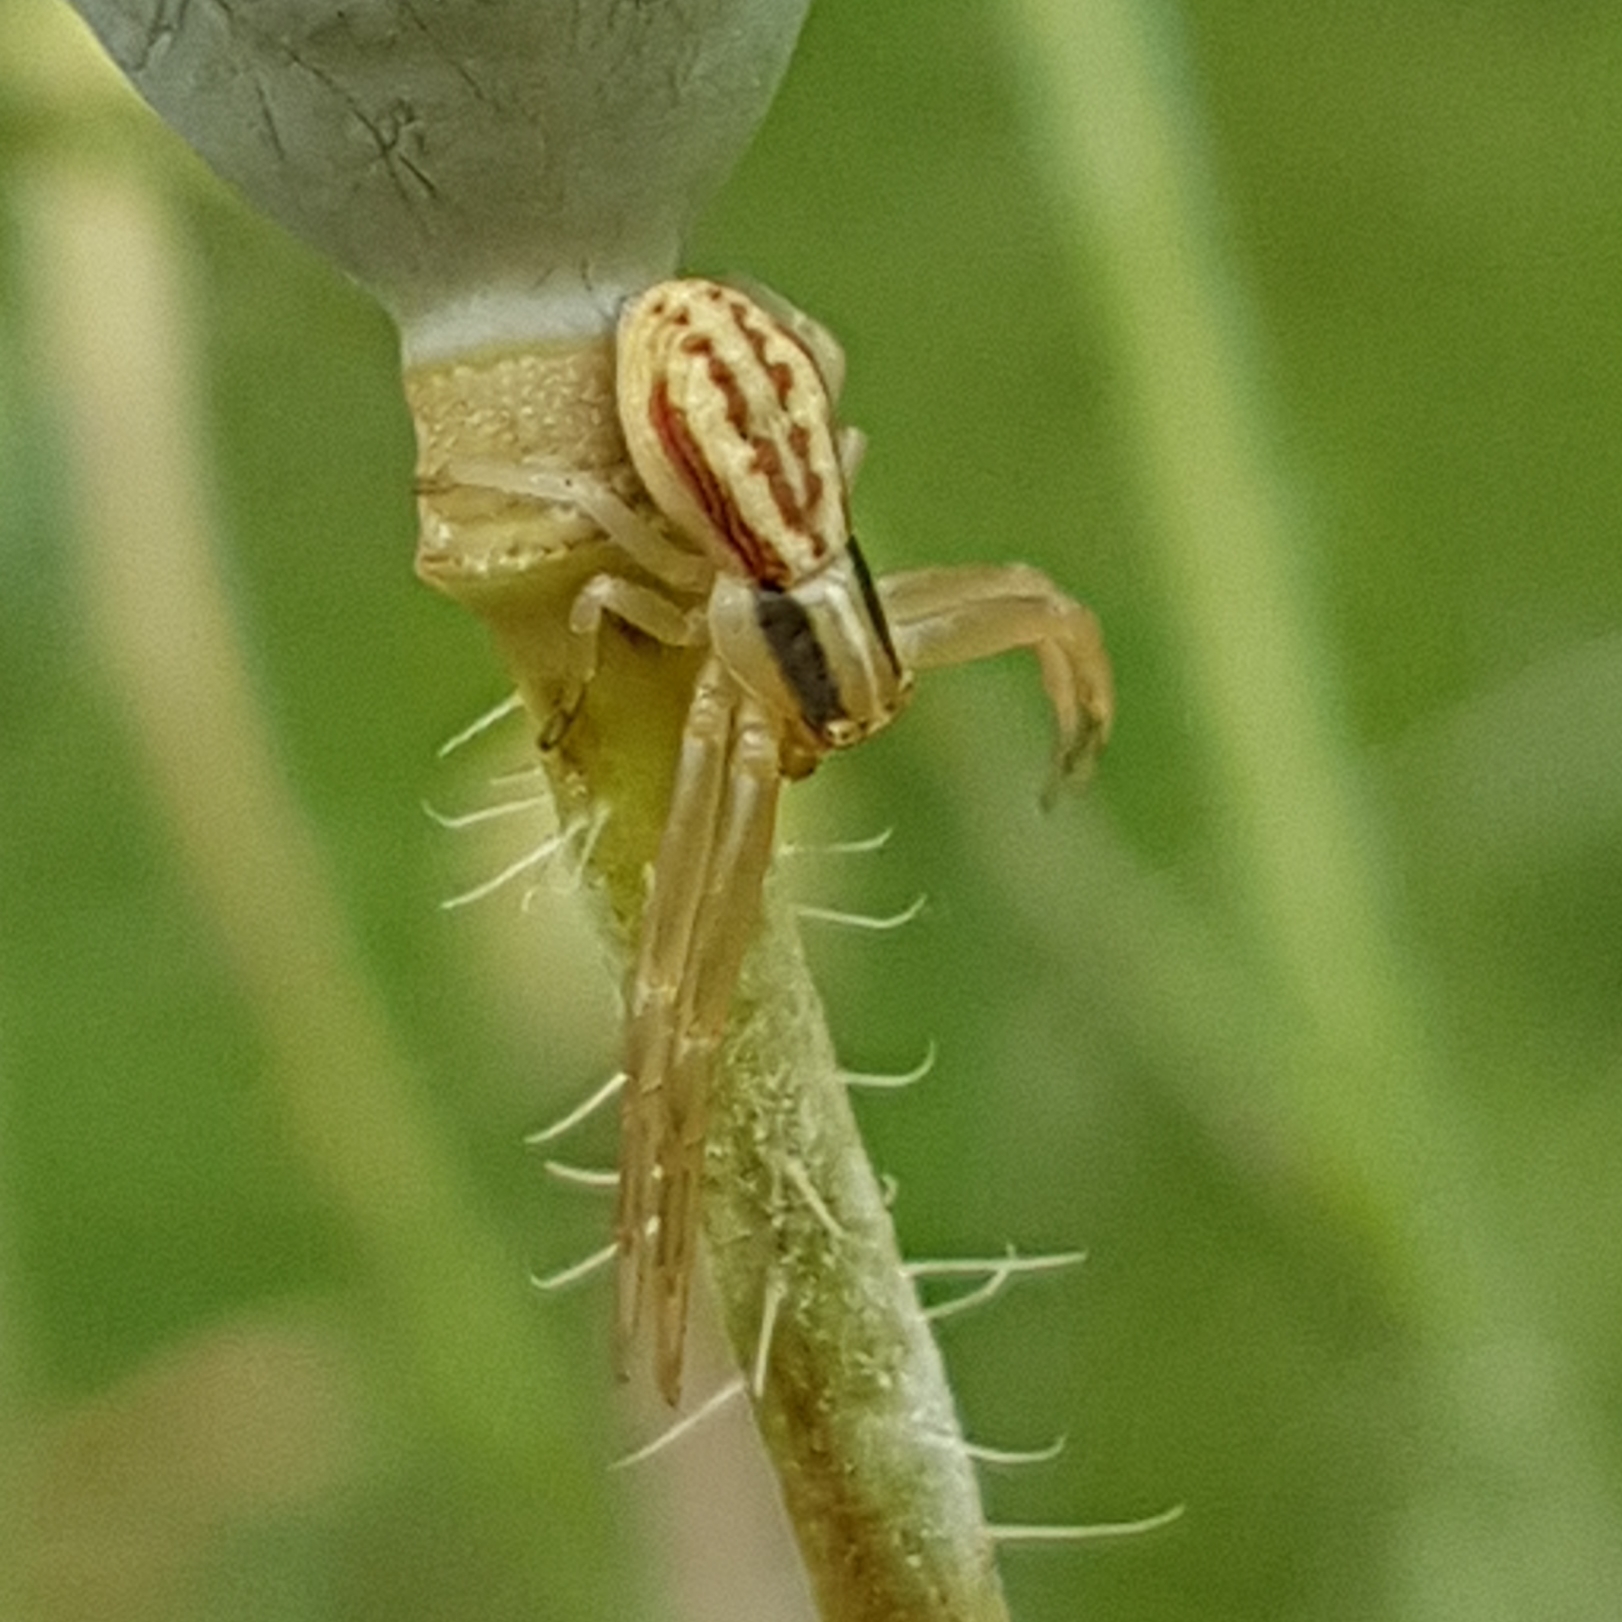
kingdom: Animalia
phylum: Arthropoda
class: Arachnida
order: Araneae
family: Thomisidae
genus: Runcinia
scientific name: Runcinia grammica
